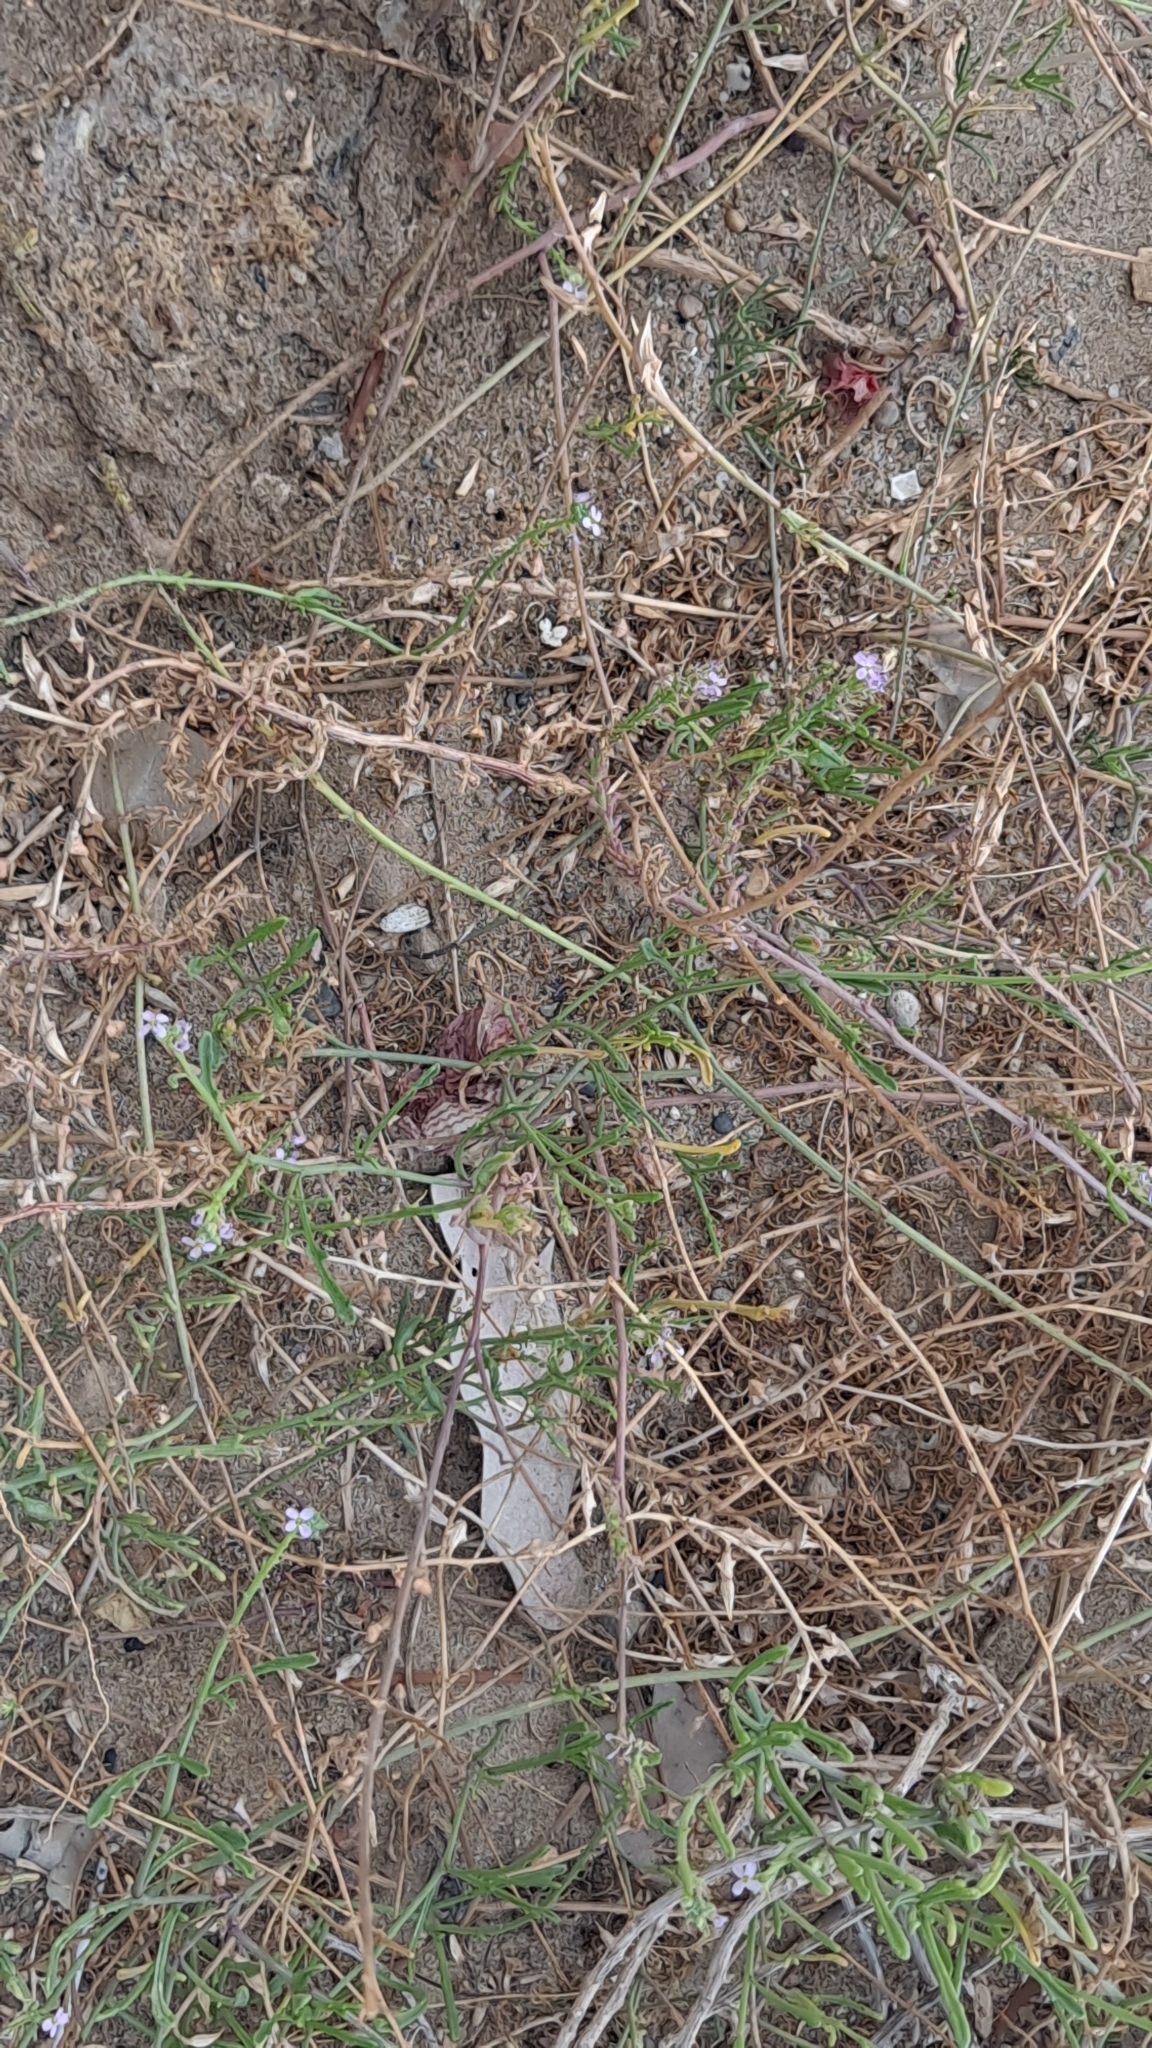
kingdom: Plantae
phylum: Tracheophyta
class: Magnoliopsida
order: Brassicales
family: Brassicaceae
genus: Cakile
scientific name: Cakile maritima
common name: Sea rocket
